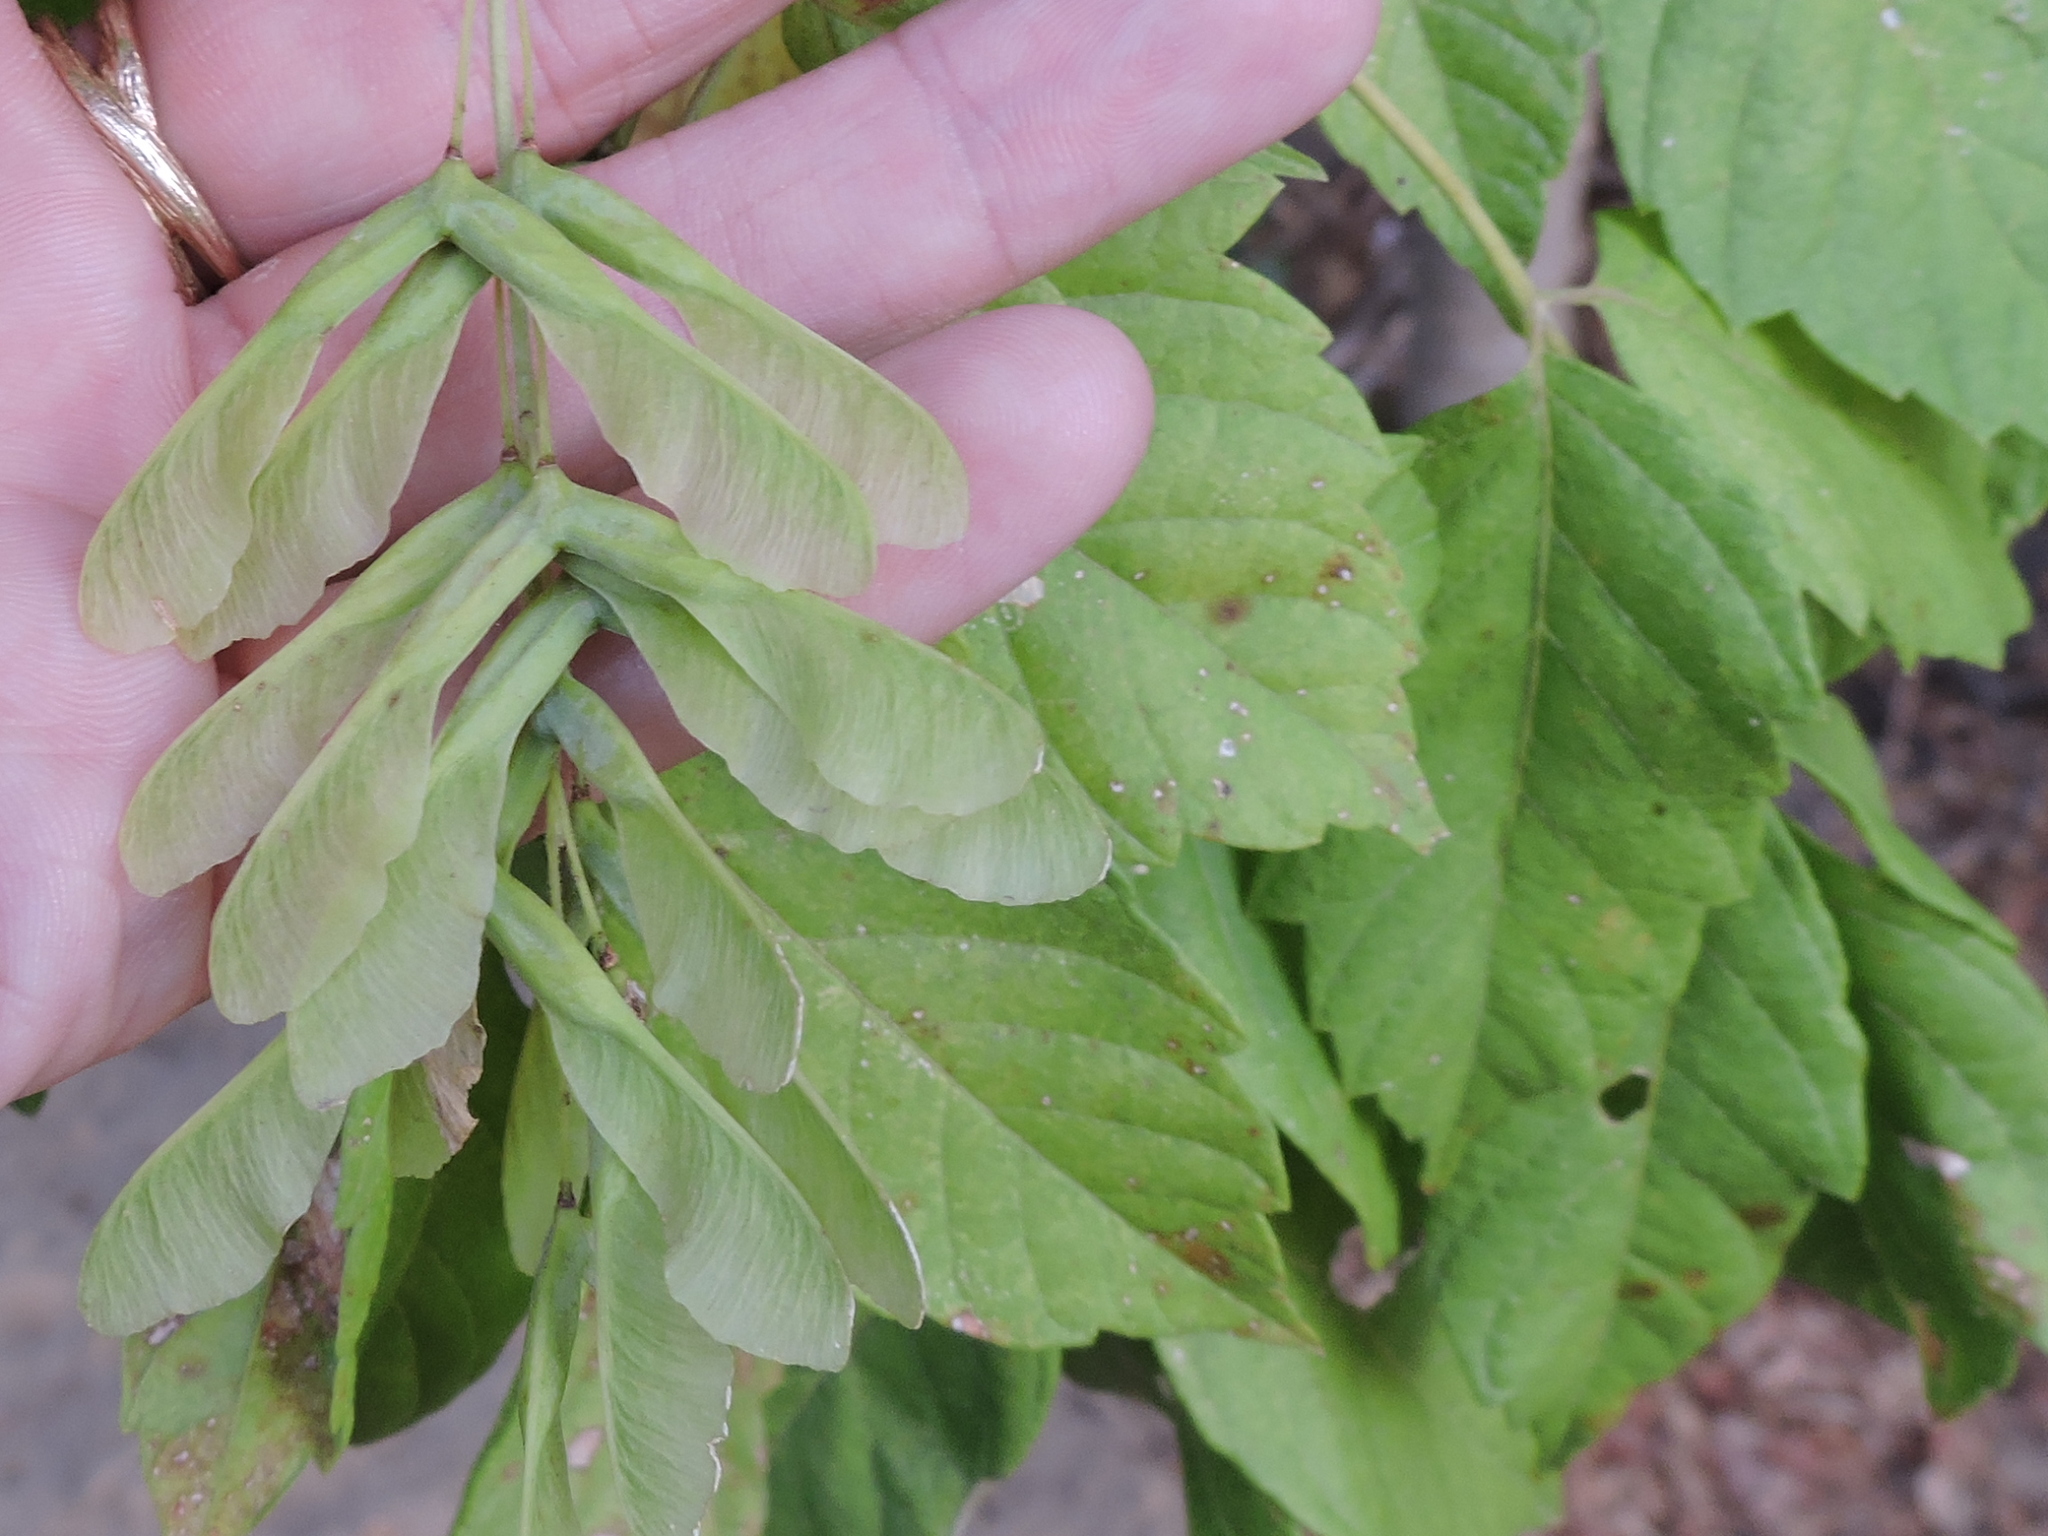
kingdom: Plantae
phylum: Tracheophyta
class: Magnoliopsida
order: Sapindales
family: Sapindaceae
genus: Acer
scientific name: Acer negundo
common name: Ashleaf maple
